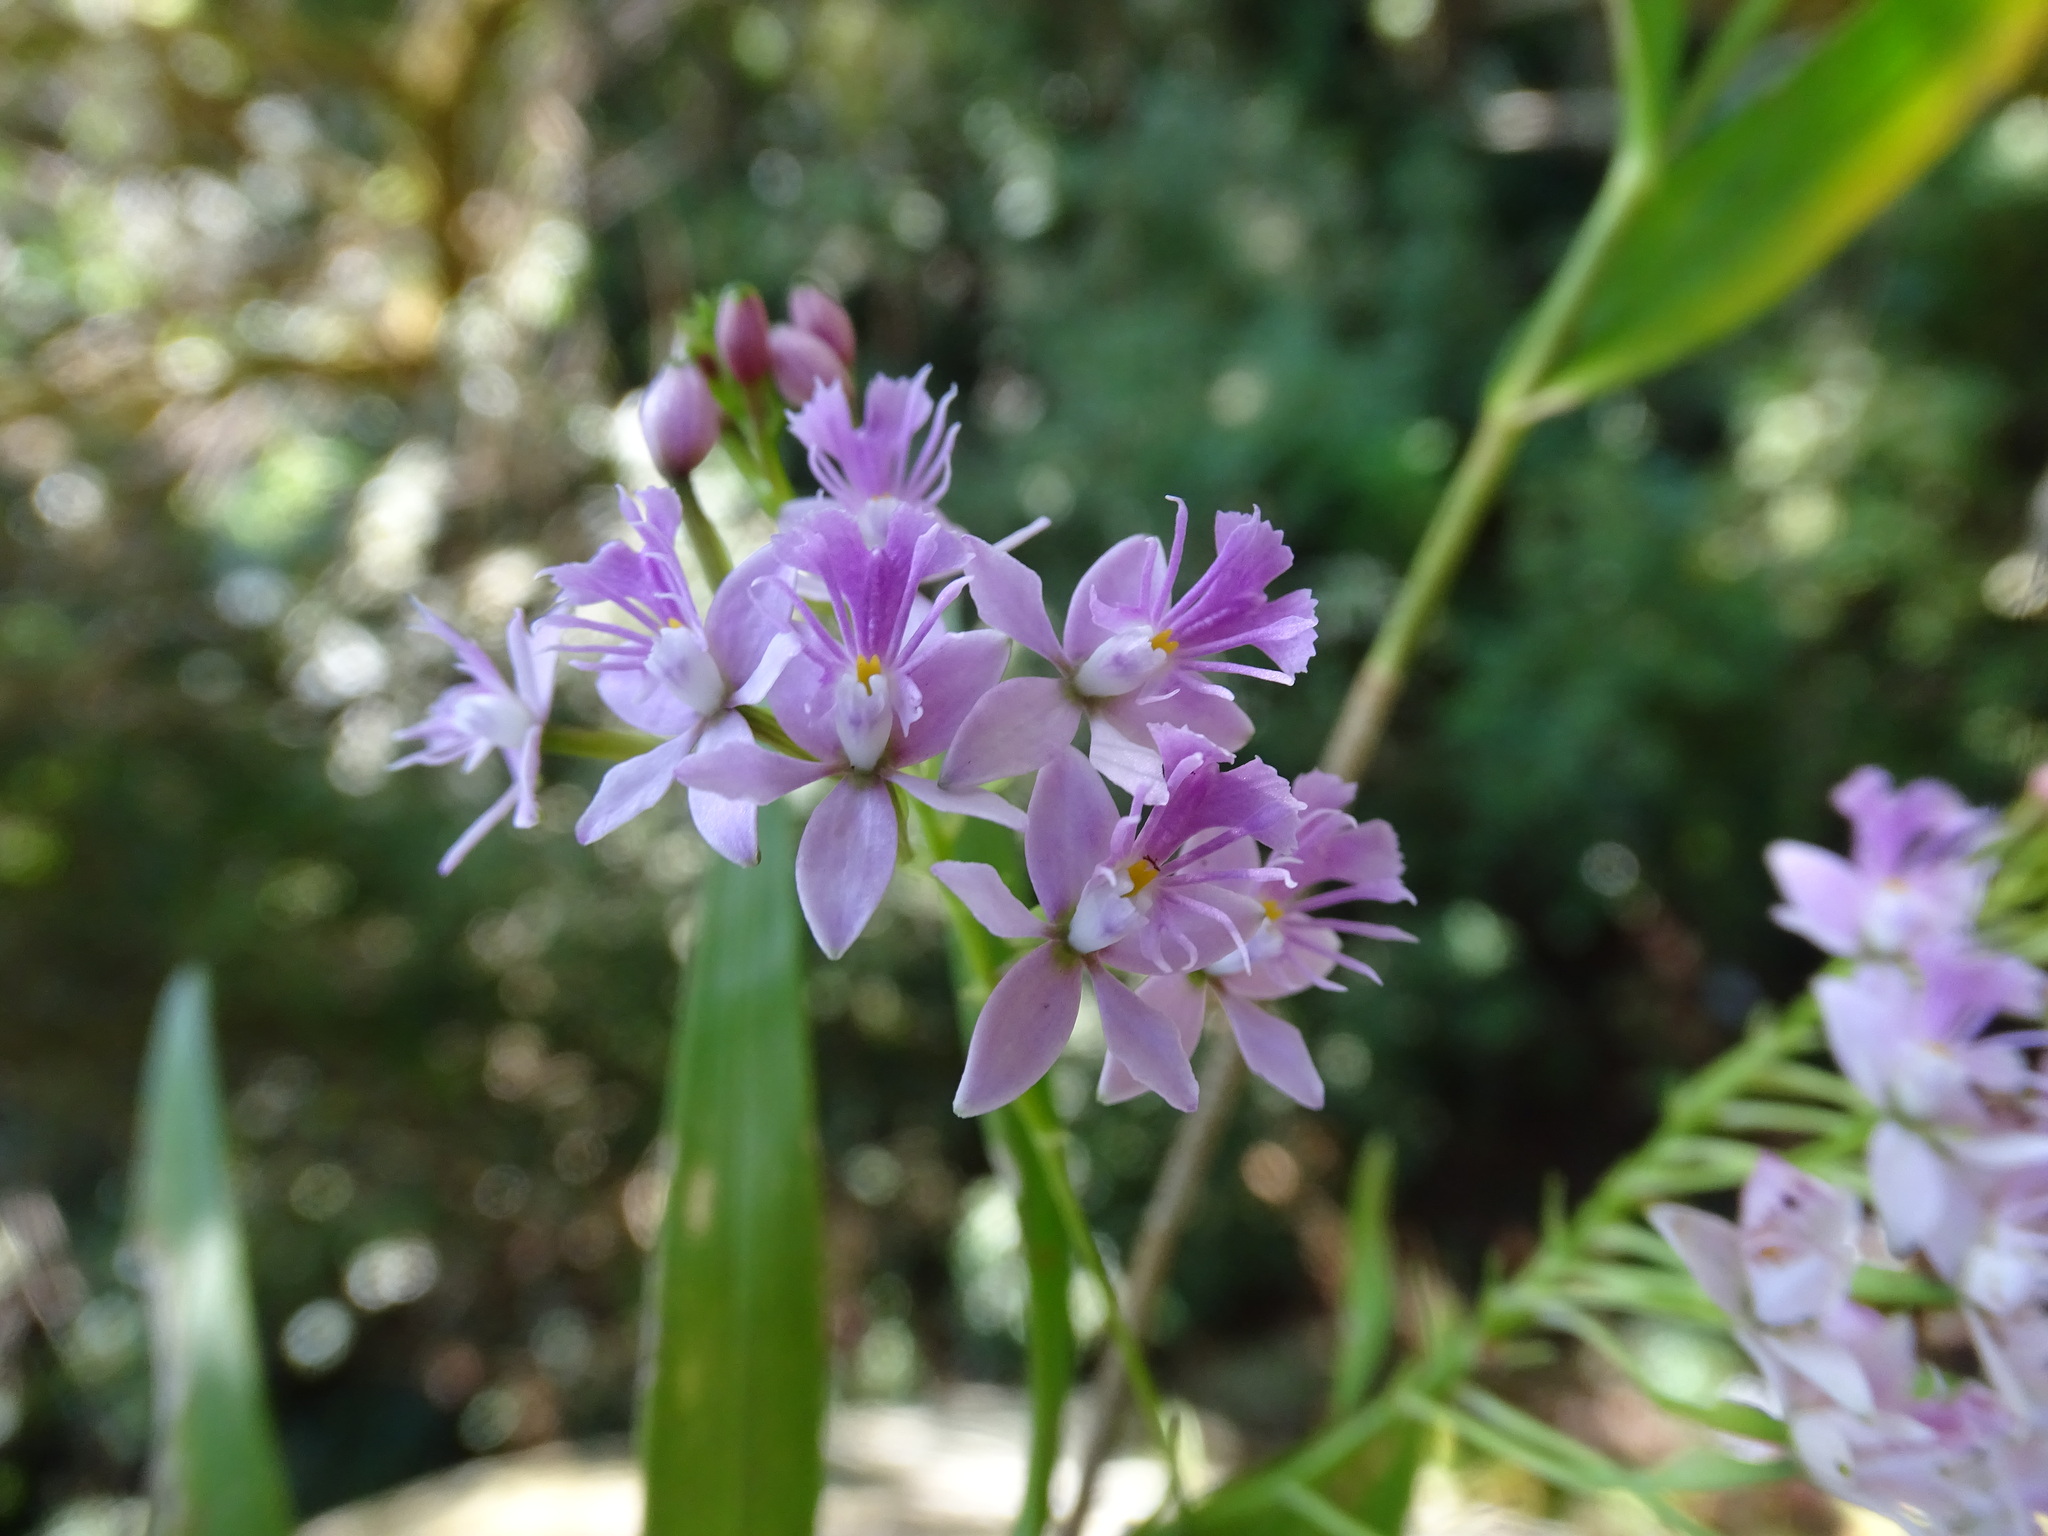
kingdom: Plantae
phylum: Tracheophyta
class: Liliopsida
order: Asparagales
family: Orchidaceae
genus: Epidendrum
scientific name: Epidendrum caligarium
